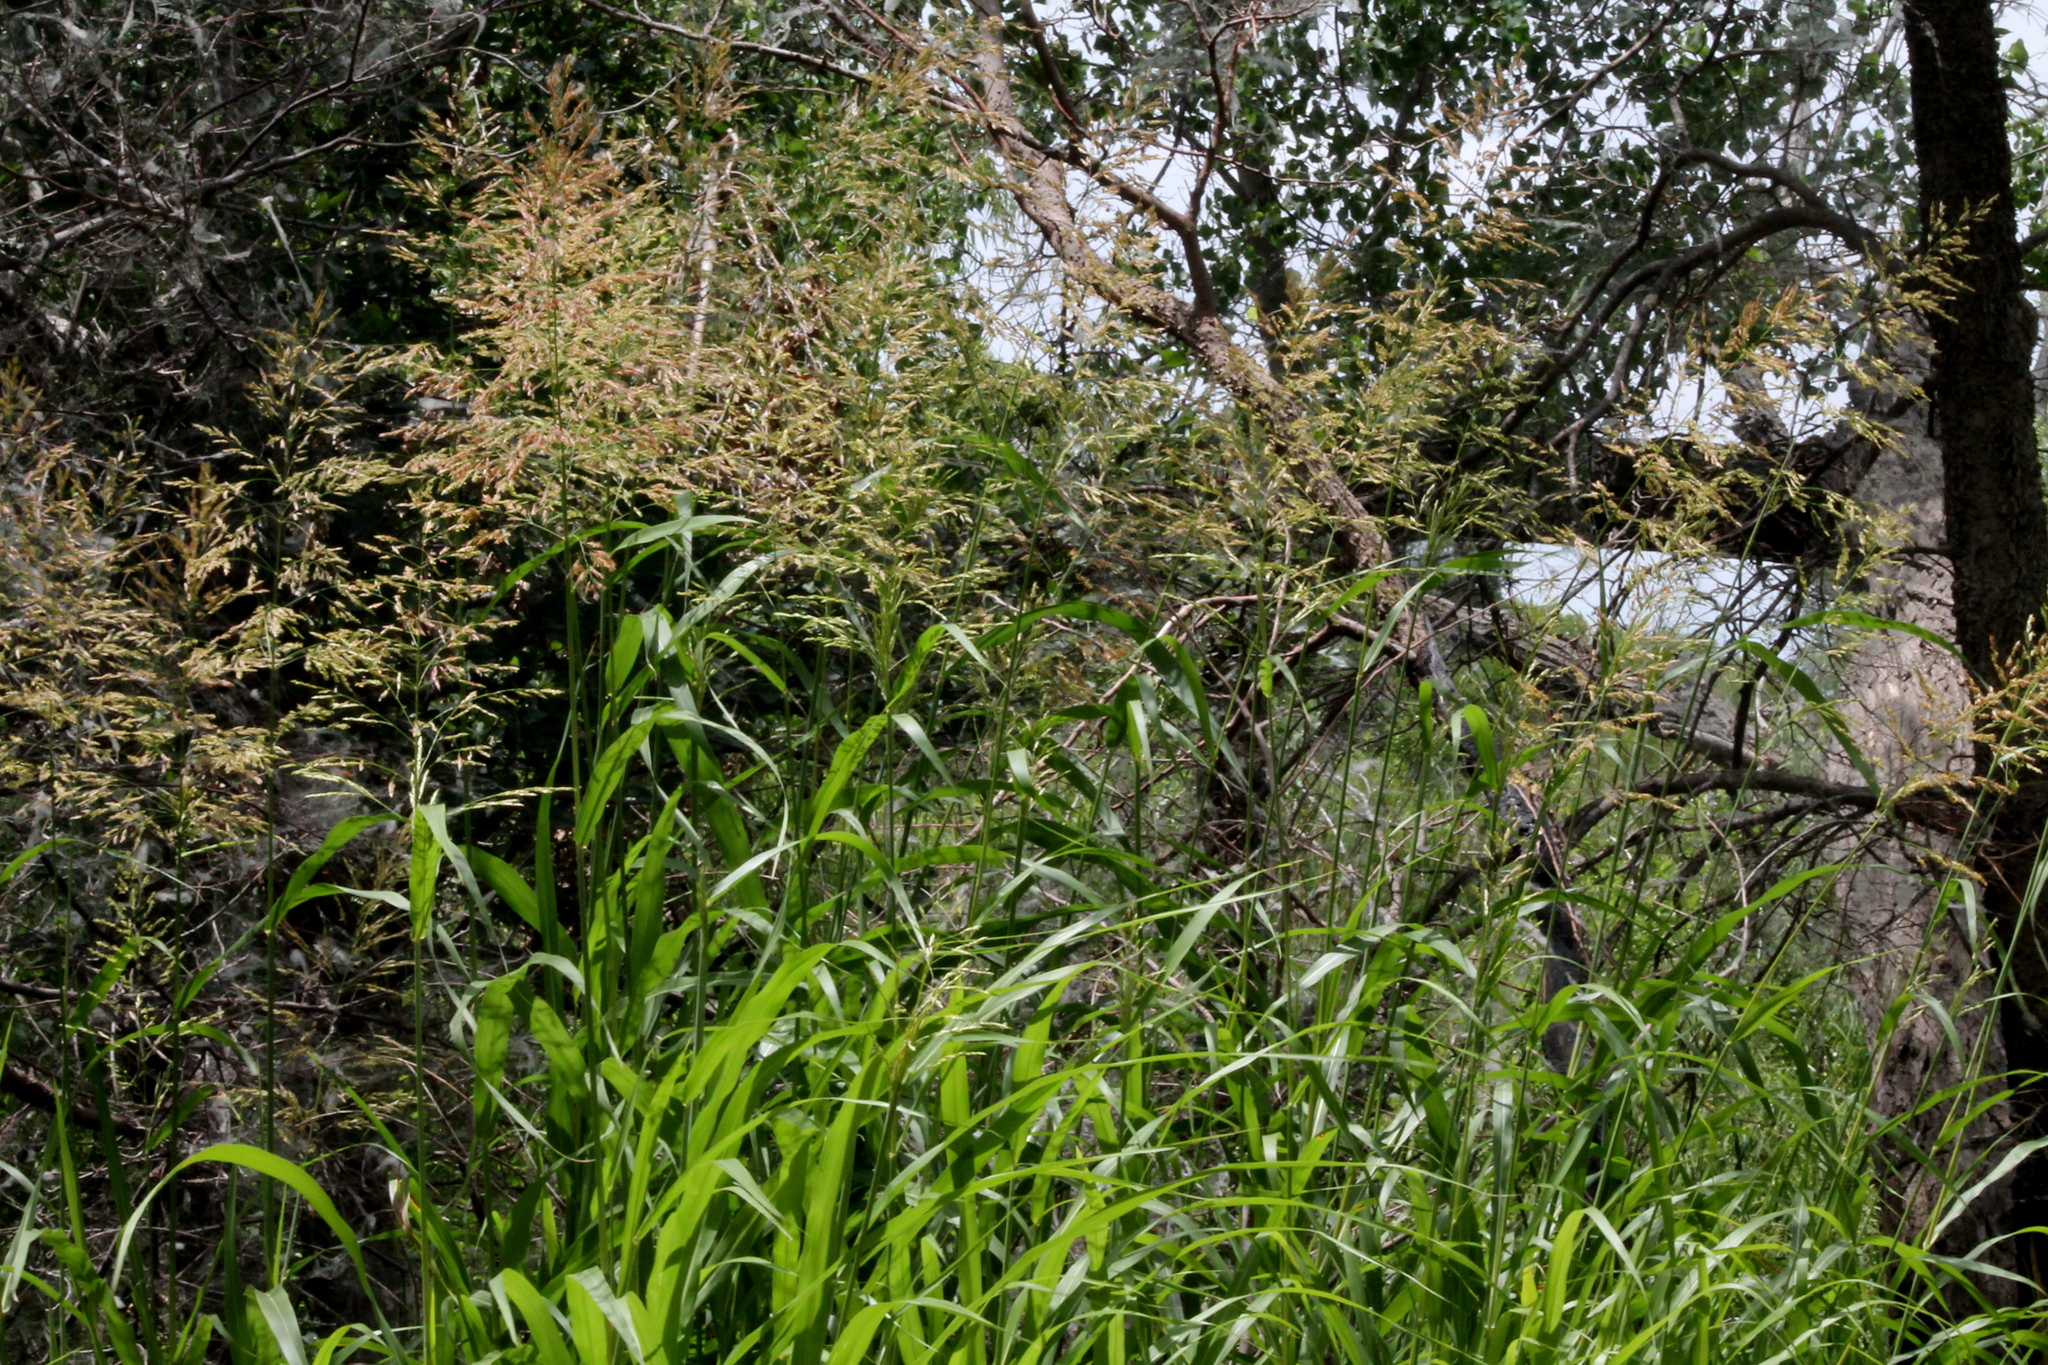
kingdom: Plantae
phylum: Tracheophyta
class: Liliopsida
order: Poales
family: Poaceae
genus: Sorghum
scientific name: Sorghum halepense
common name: Johnson-grass
